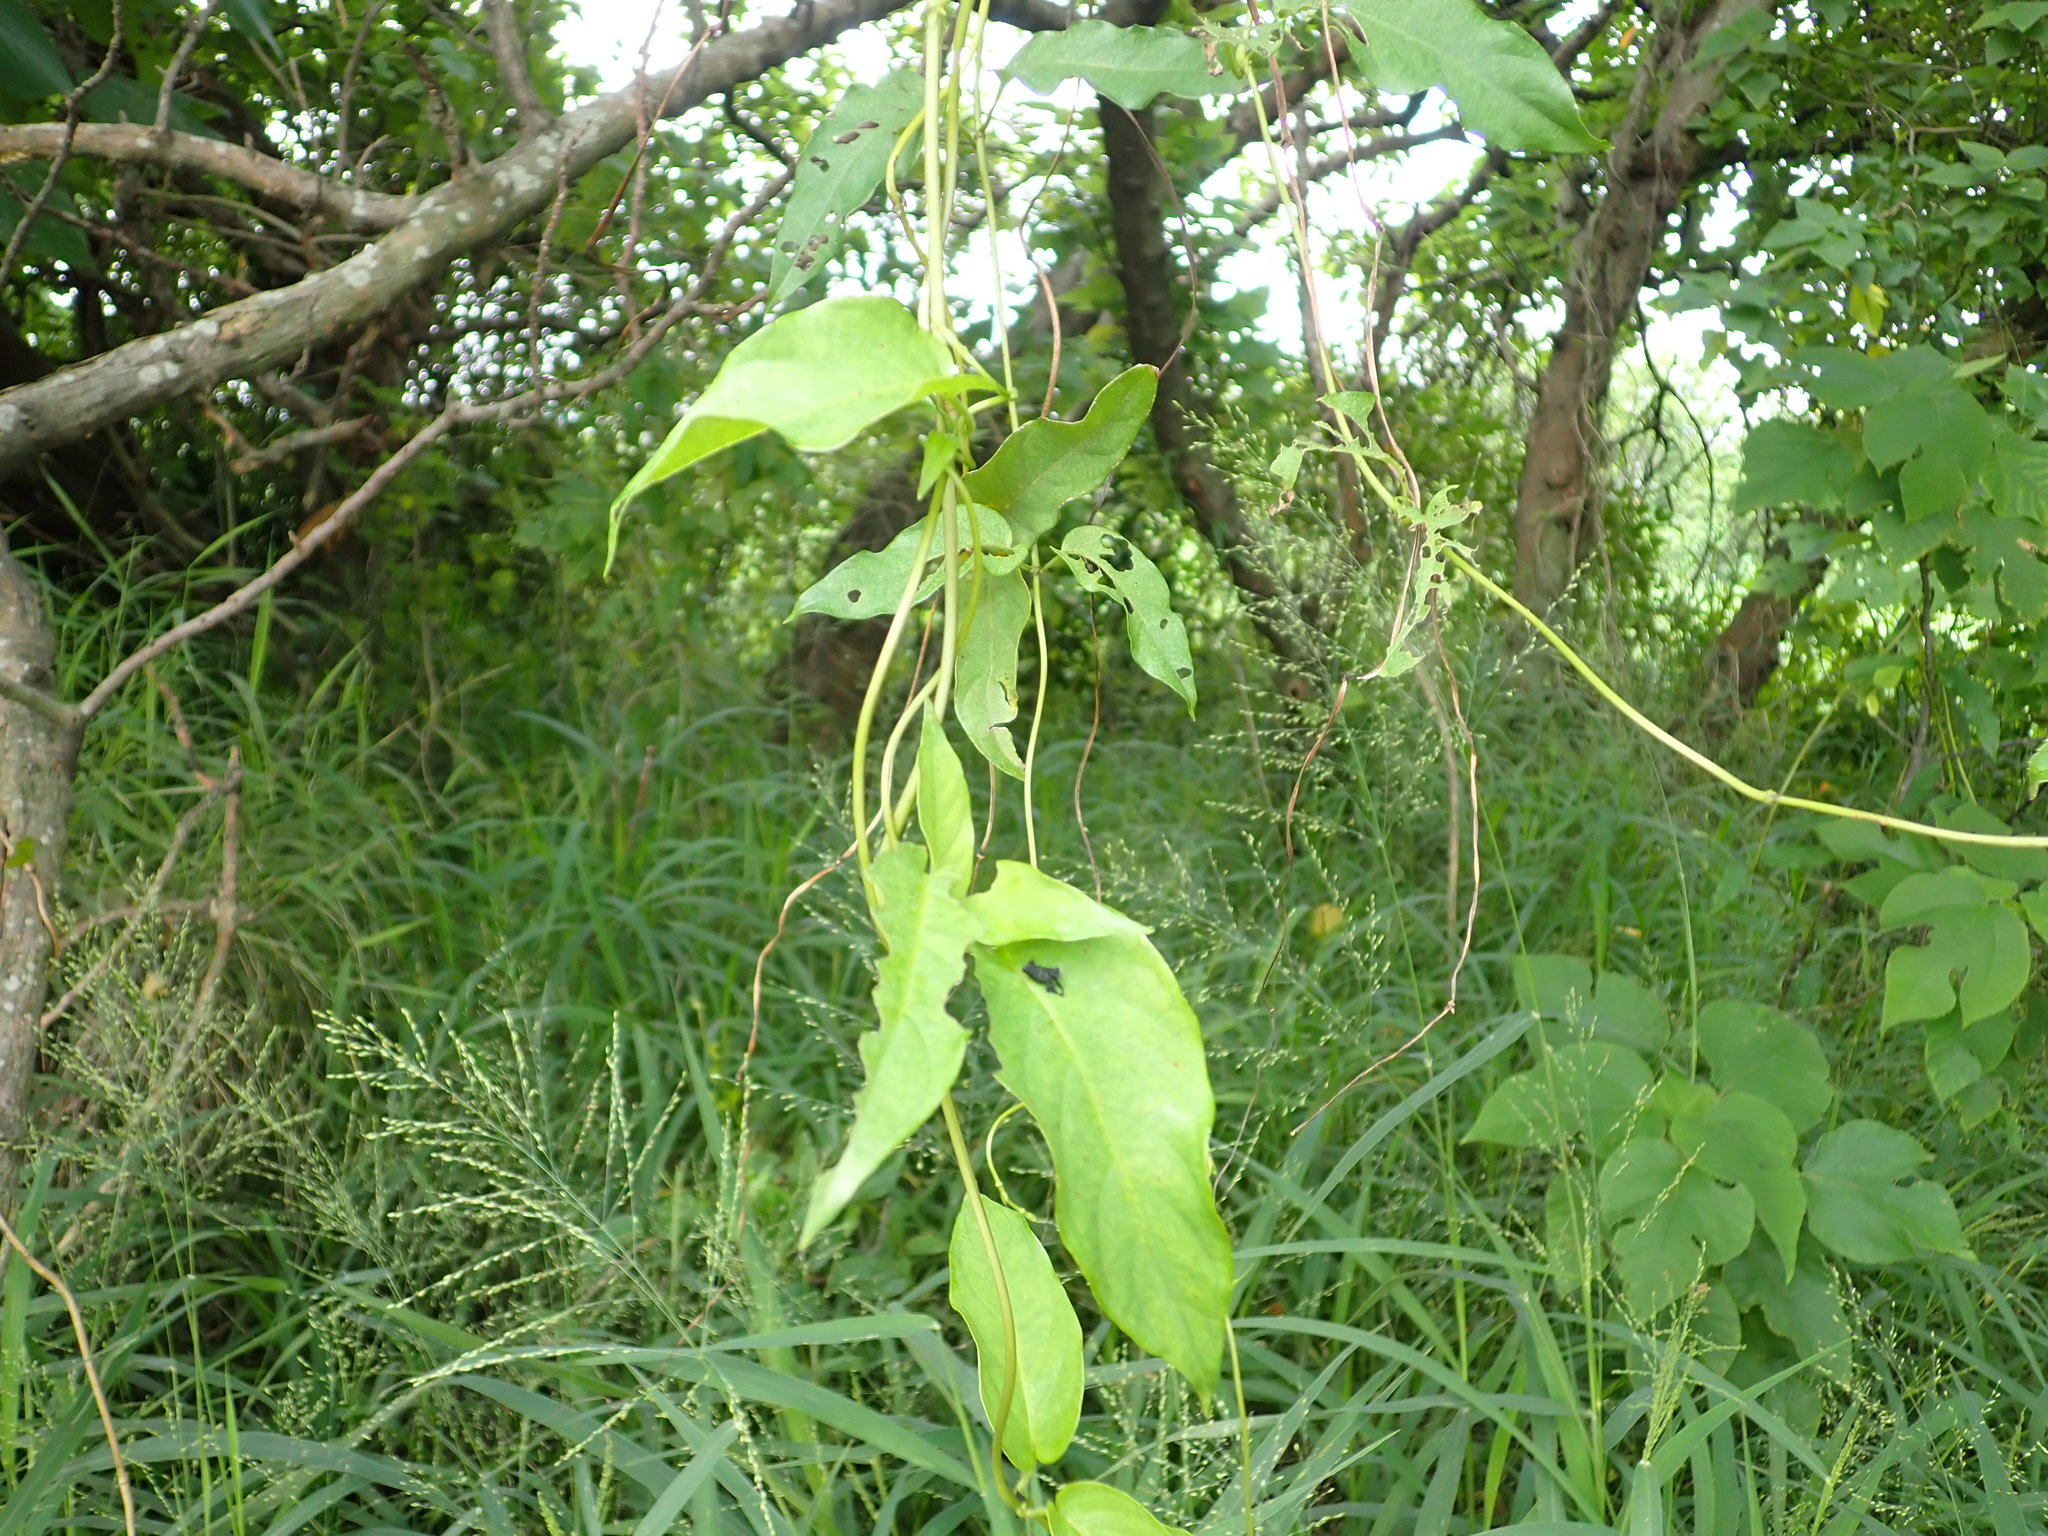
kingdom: Plantae
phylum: Tracheophyta
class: Magnoliopsida
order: Gentianales
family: Rubiaceae
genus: Paederia
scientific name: Paederia foetida
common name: Stinkvine
